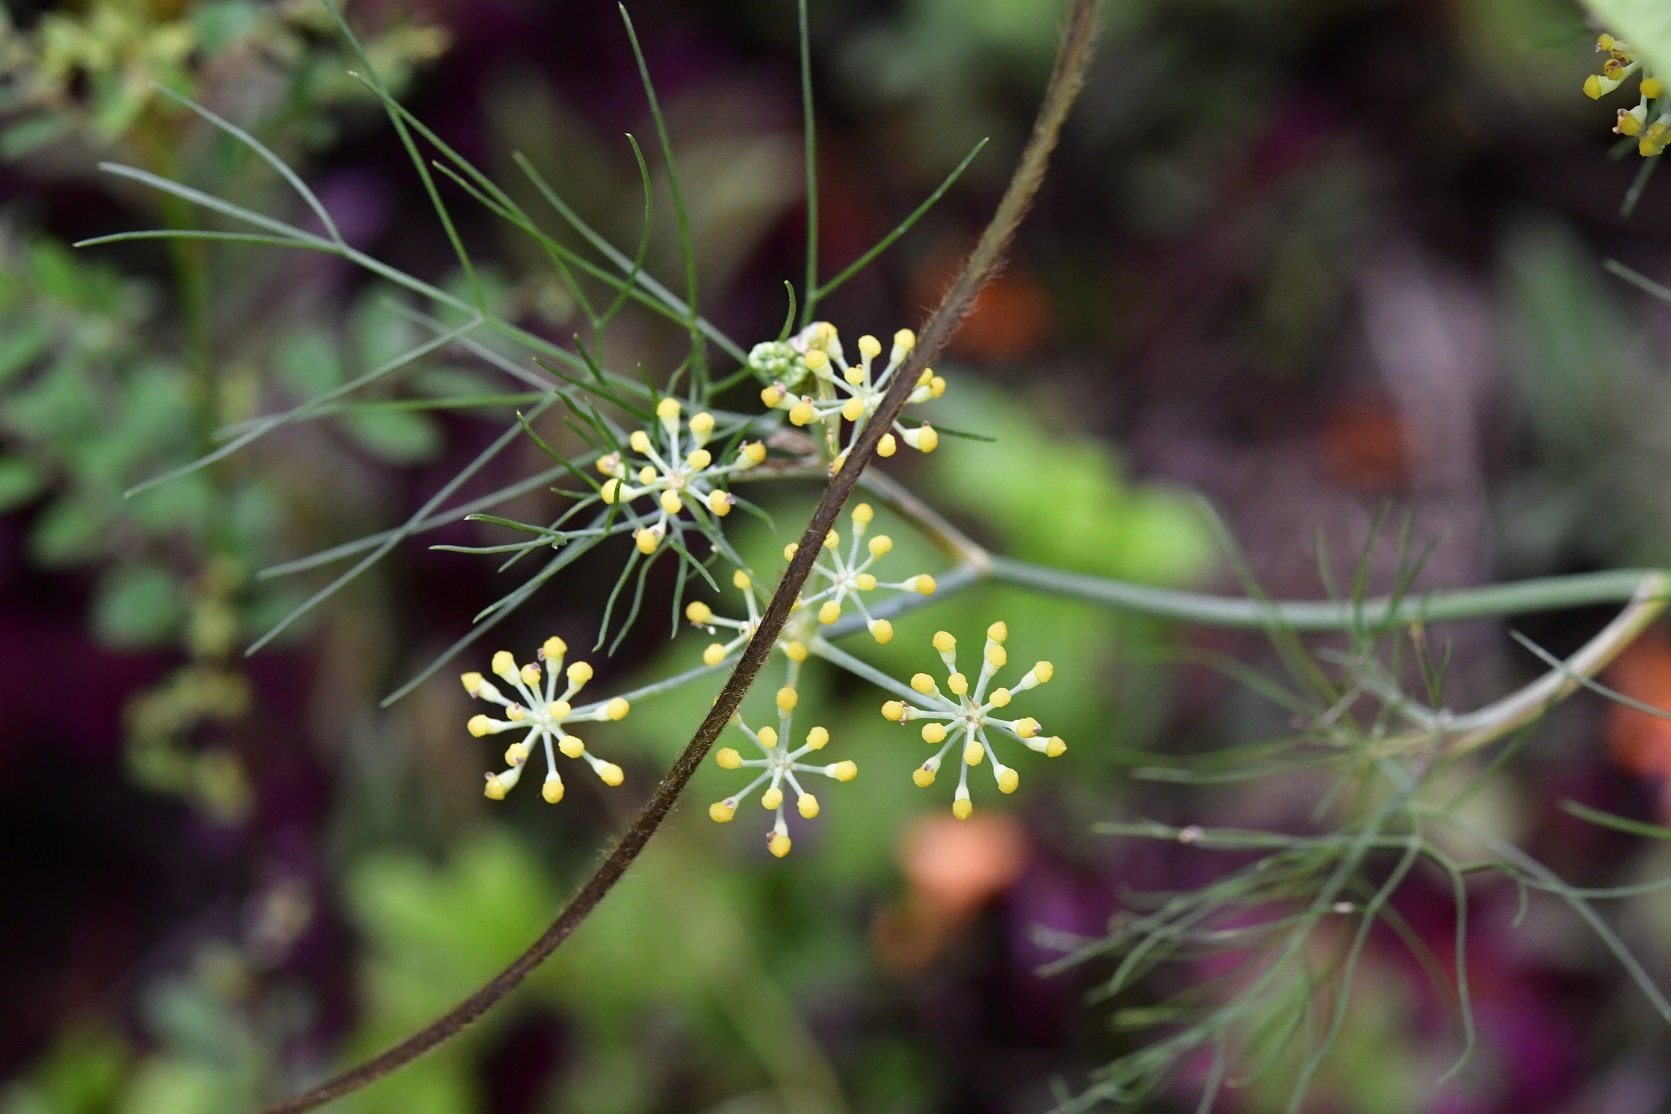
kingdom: Plantae
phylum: Tracheophyta
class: Magnoliopsida
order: Apiales
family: Apiaceae
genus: Prionosciadium
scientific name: Prionosciadium nelsonii
